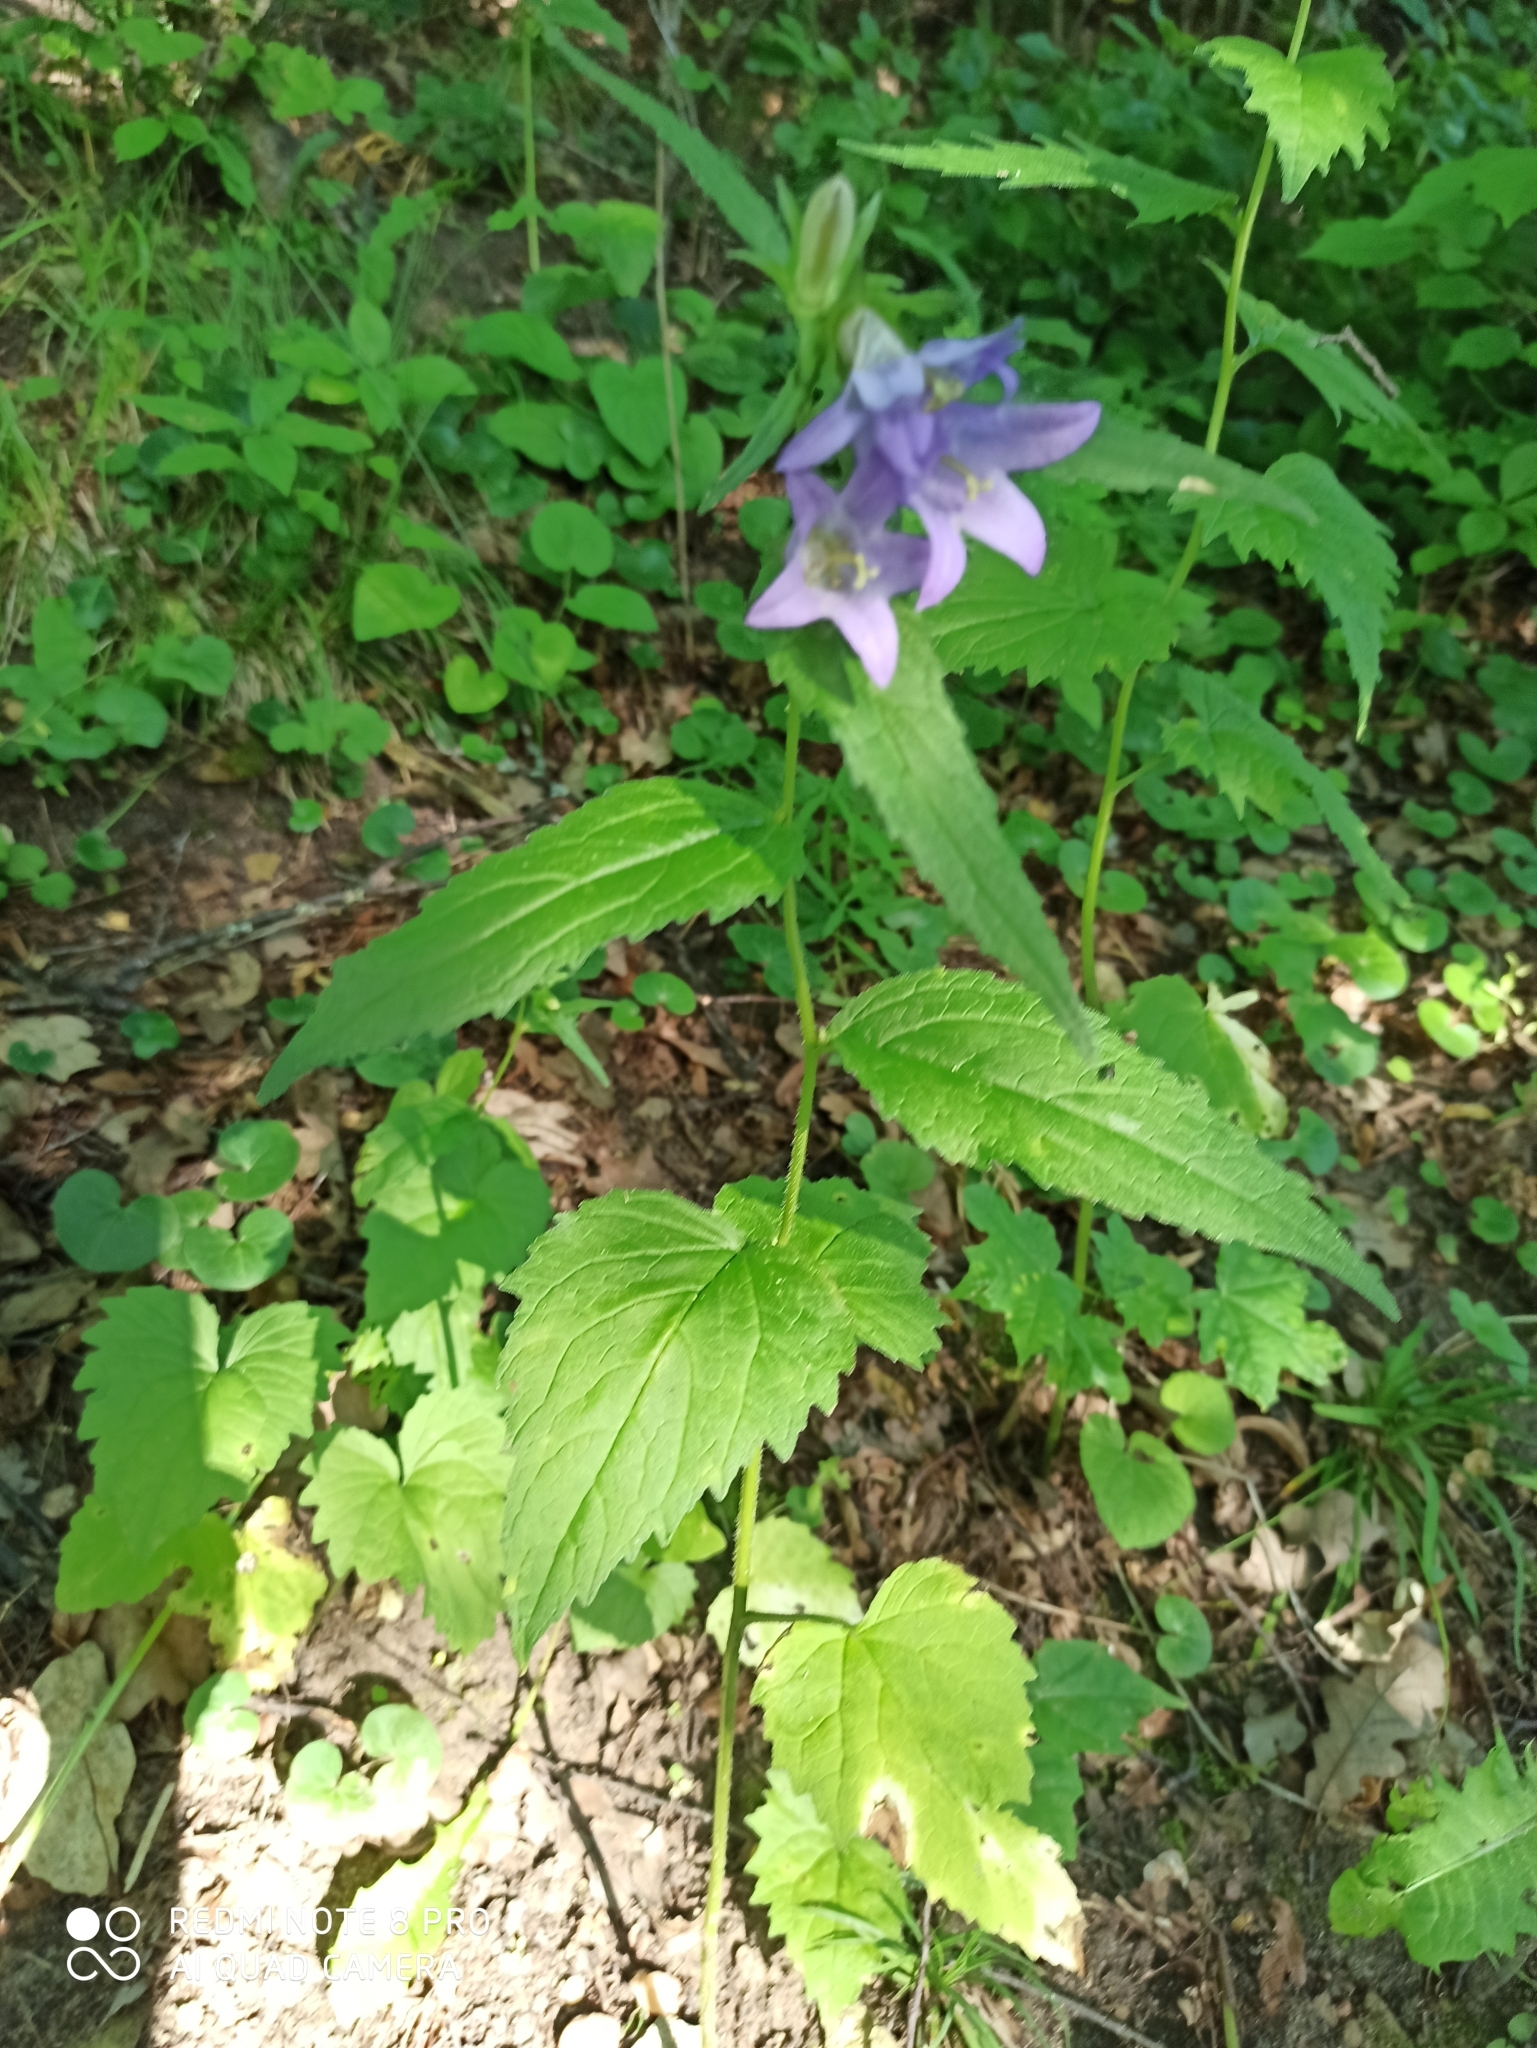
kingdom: Plantae
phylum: Tracheophyta
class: Magnoliopsida
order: Asterales
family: Campanulaceae
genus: Campanula
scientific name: Campanula trachelium
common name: Nettle-leaved bellflower
